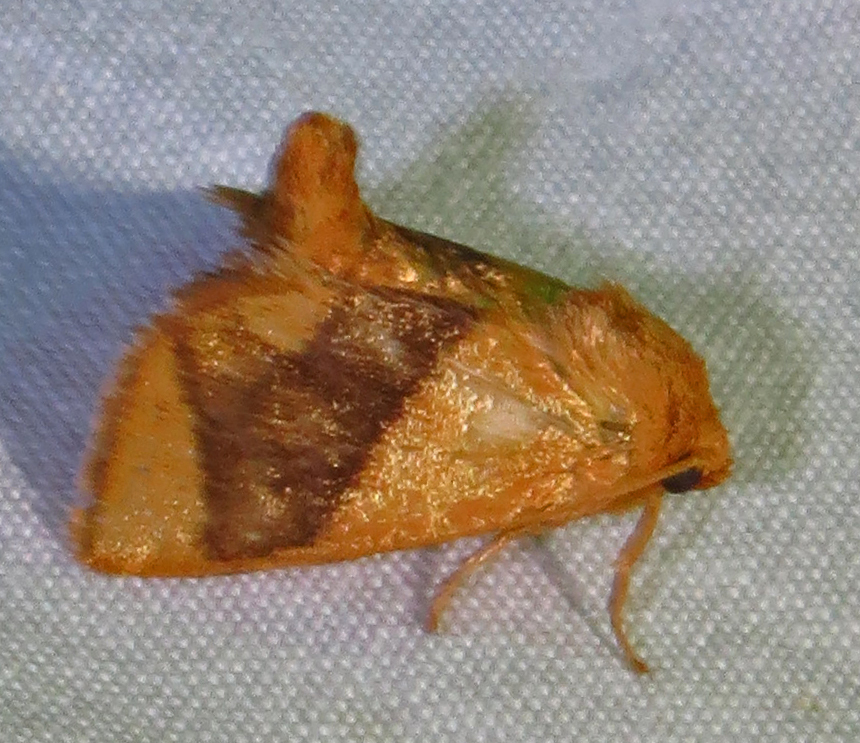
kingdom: Animalia
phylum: Arthropoda
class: Insecta
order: Lepidoptera
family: Limacodidae
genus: Apoda
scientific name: Apoda y-inversa
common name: Yellow-collared slug moth
